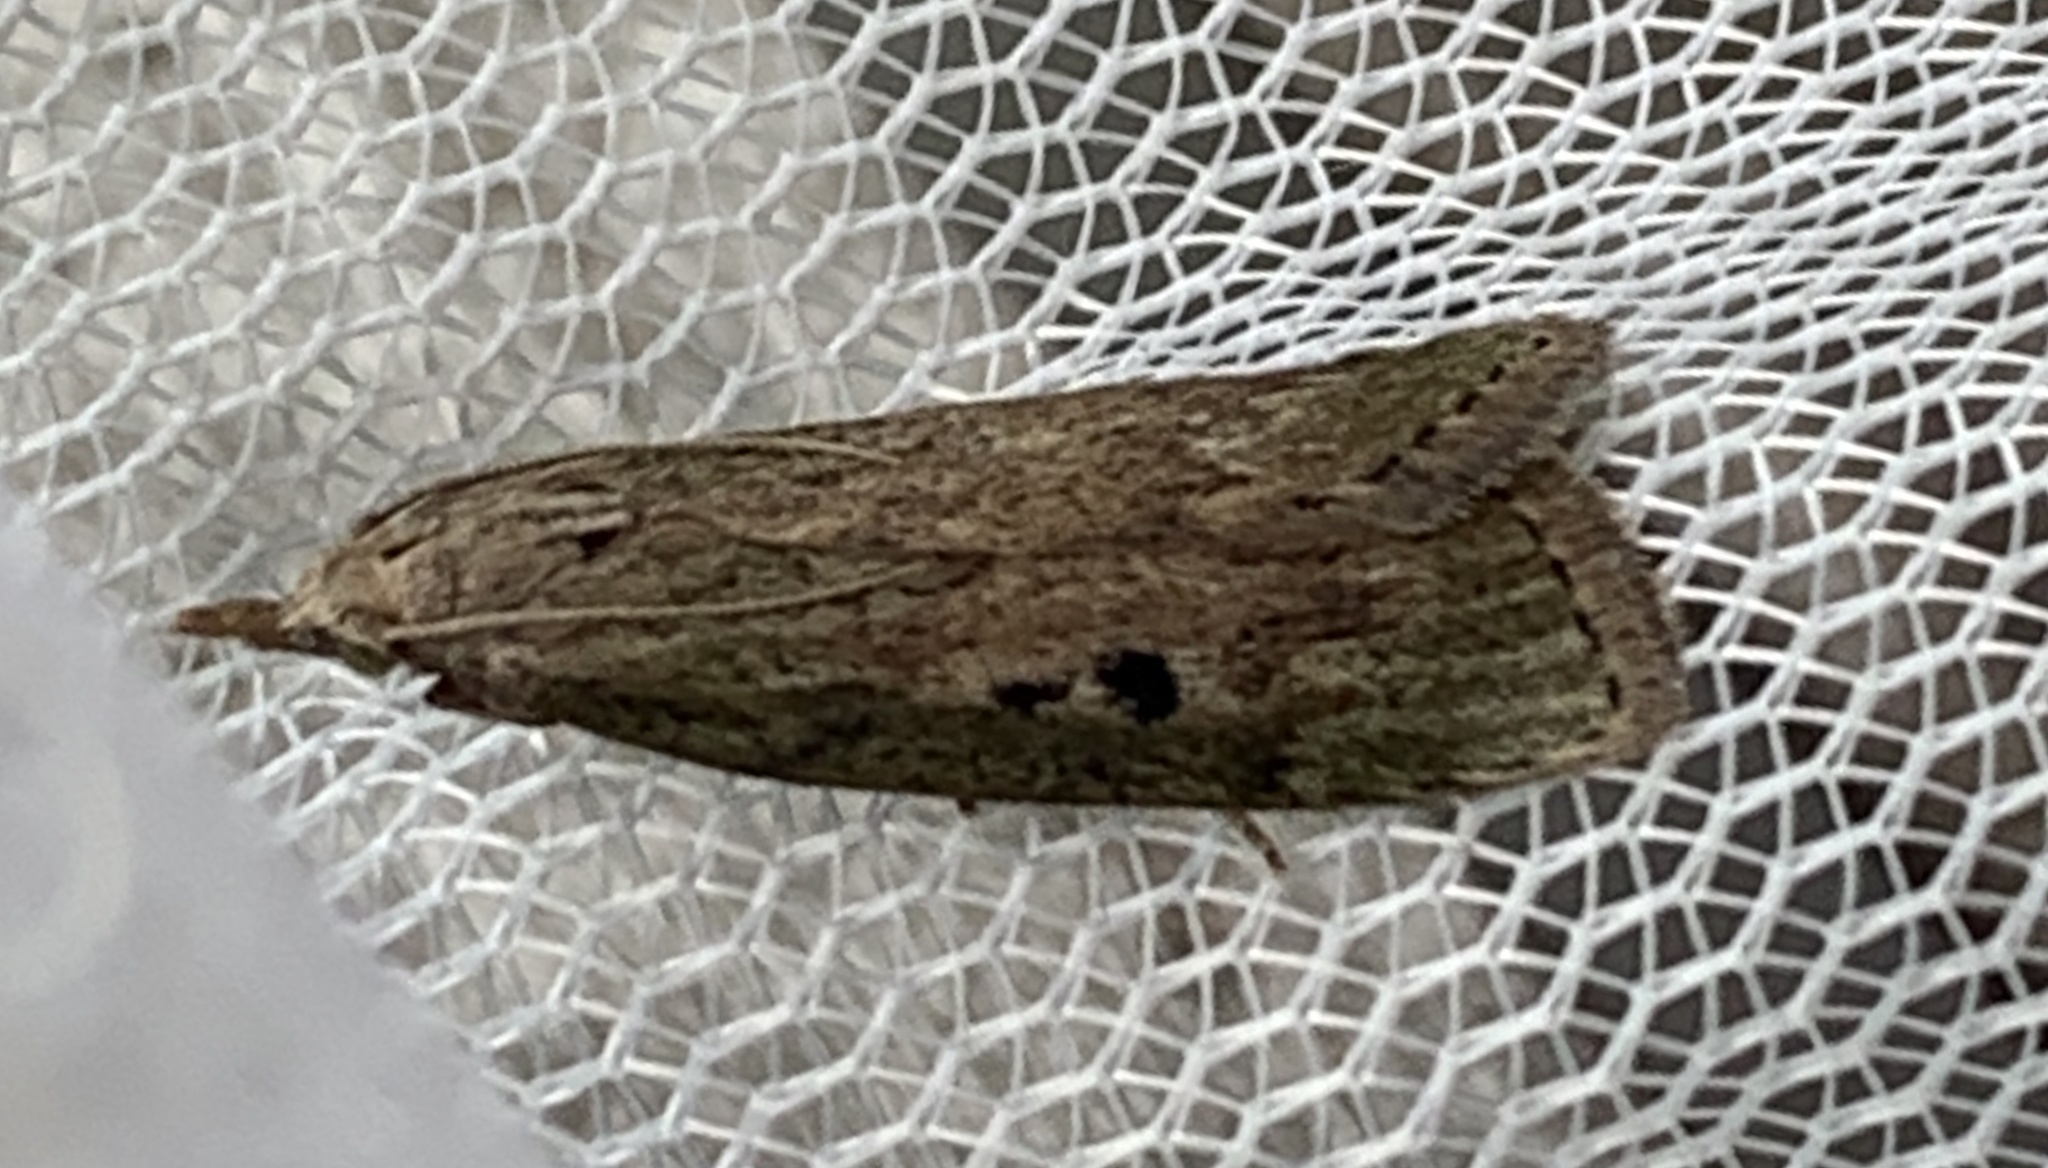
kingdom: Animalia
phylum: Arthropoda
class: Insecta
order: Lepidoptera
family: Pyralidae
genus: Aphomia
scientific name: Aphomia sociella
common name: Bee moth
